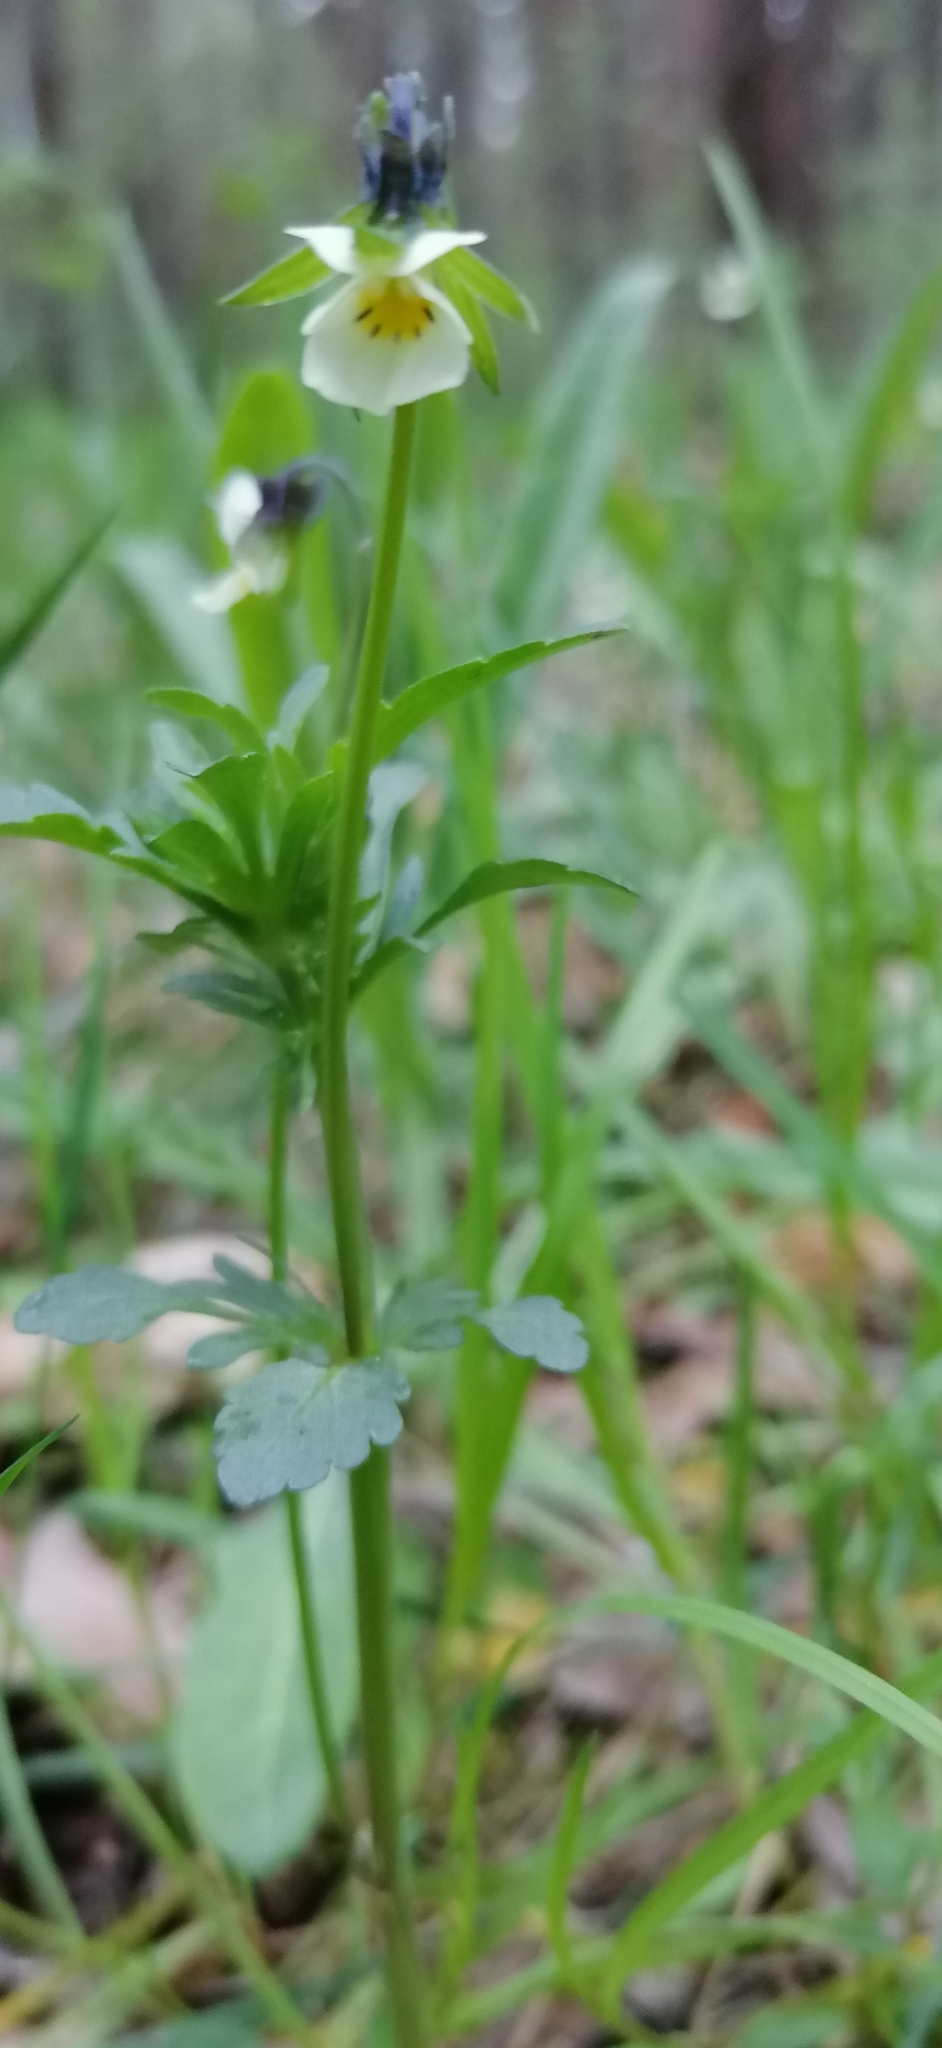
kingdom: Plantae
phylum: Tracheophyta
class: Magnoliopsida
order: Malpighiales
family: Violaceae
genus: Viola
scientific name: Viola arvensis
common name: Field pansy
